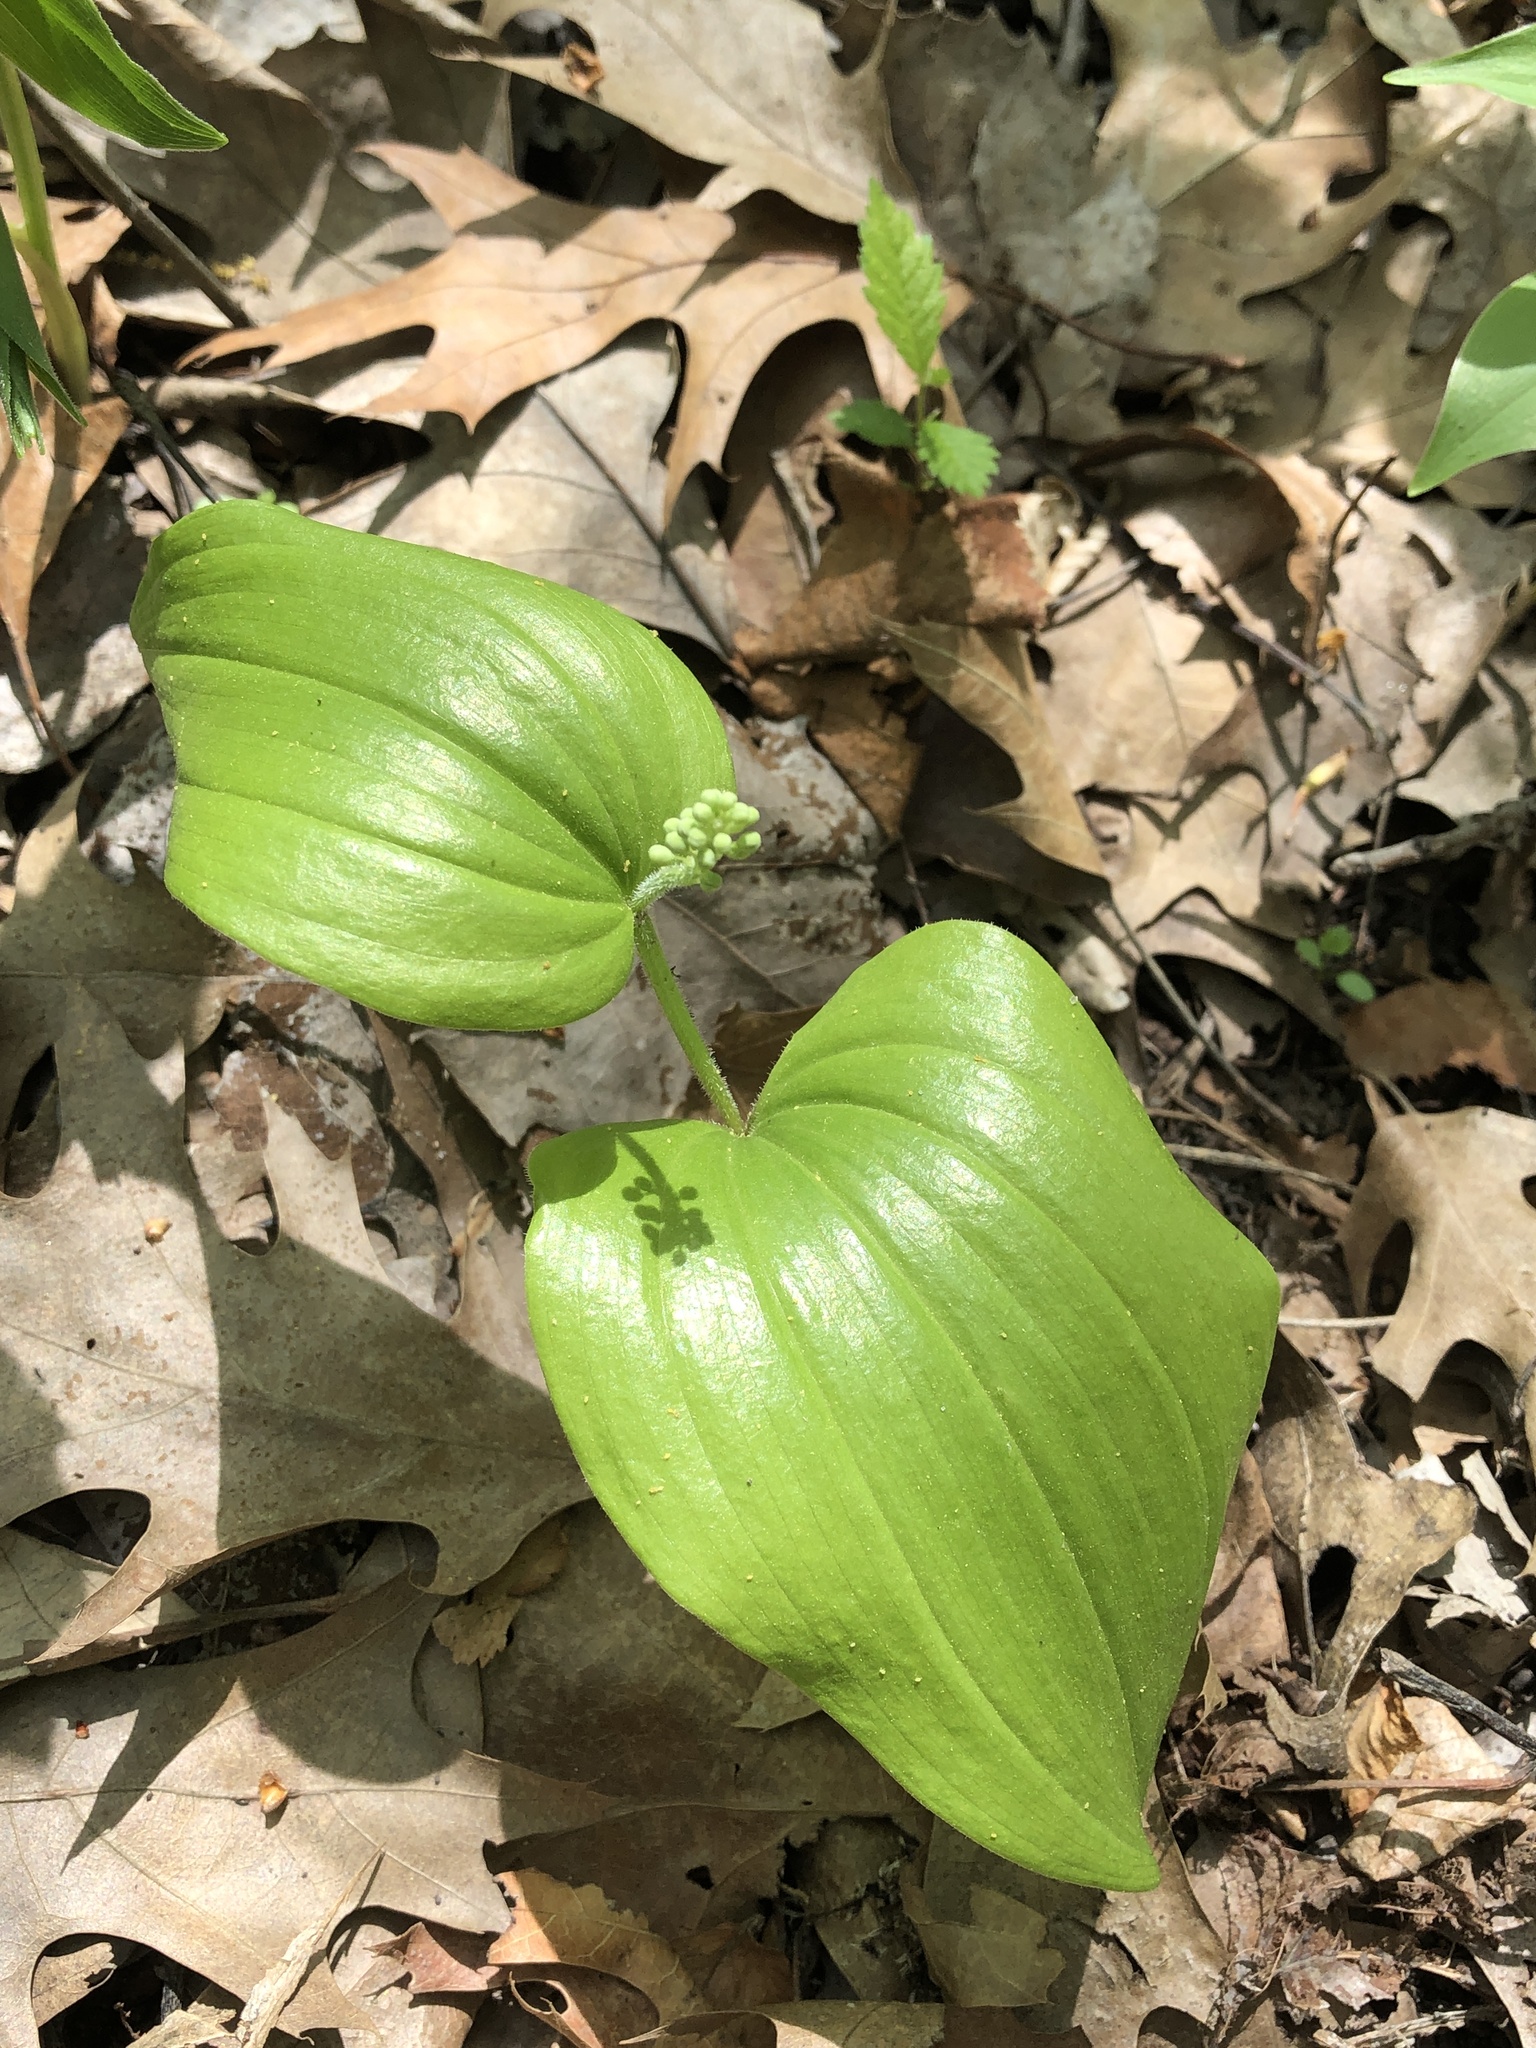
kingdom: Plantae
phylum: Tracheophyta
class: Liliopsida
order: Asparagales
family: Asparagaceae
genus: Maianthemum
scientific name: Maianthemum canadense
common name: False lily-of-the-valley
